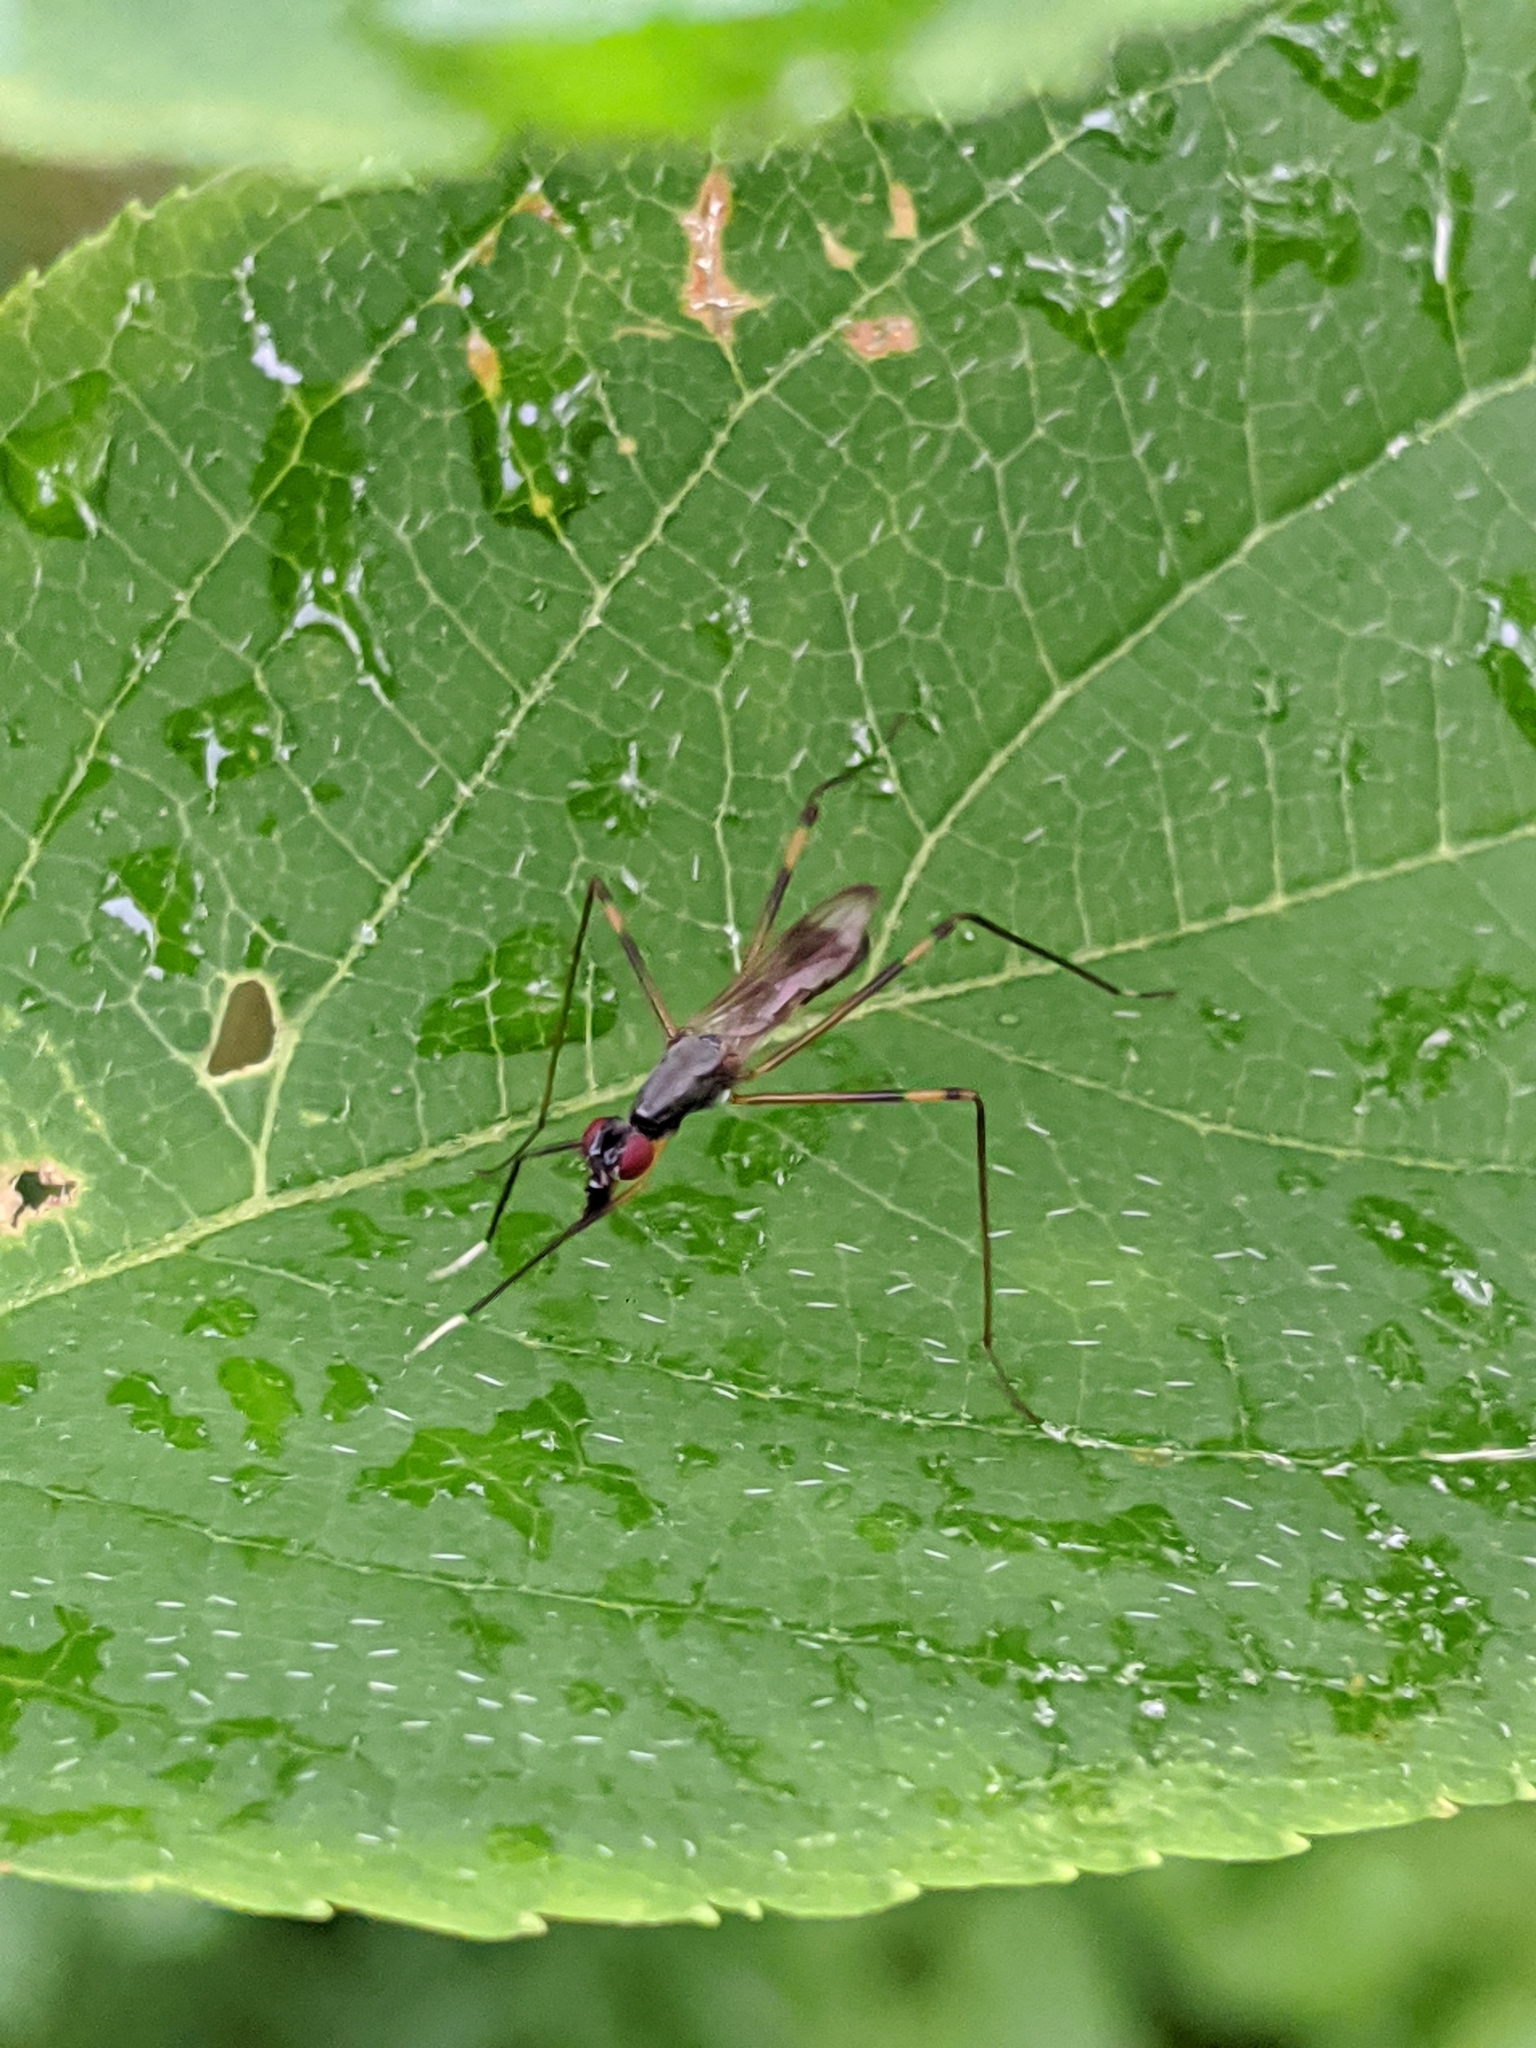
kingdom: Animalia
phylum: Arthropoda
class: Insecta
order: Diptera
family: Micropezidae
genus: Rainieria
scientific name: Rainieria antennaepes
